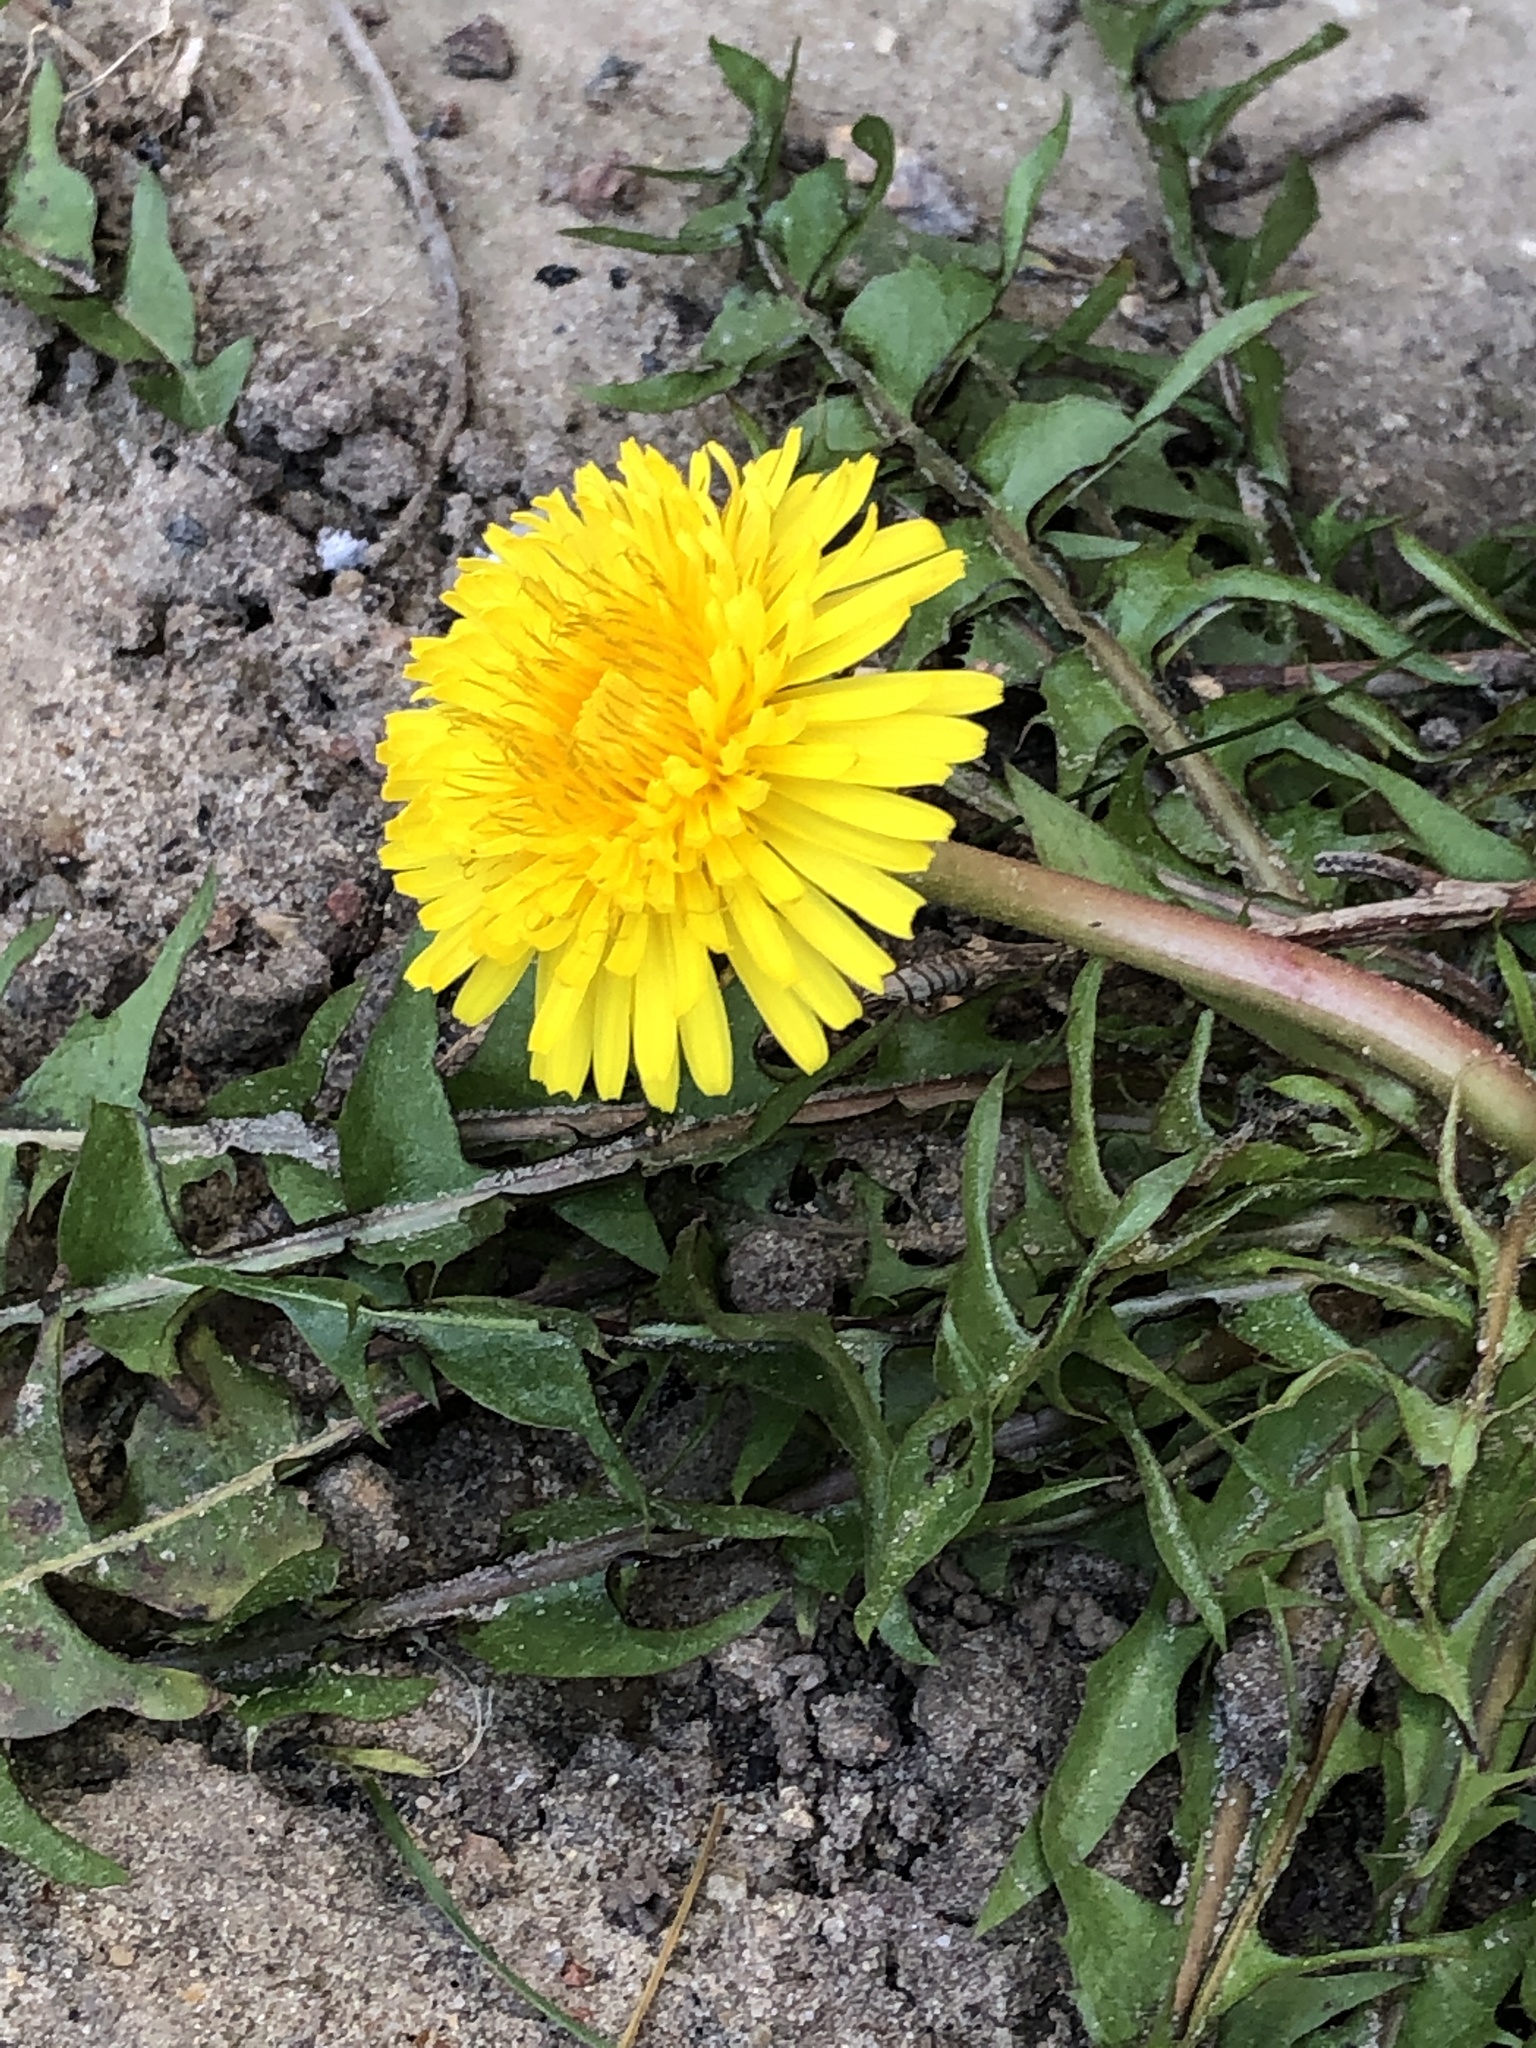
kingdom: Plantae
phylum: Tracheophyta
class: Magnoliopsida
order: Asterales
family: Asteraceae
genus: Taraxacum
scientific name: Taraxacum officinale
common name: Common dandelion
